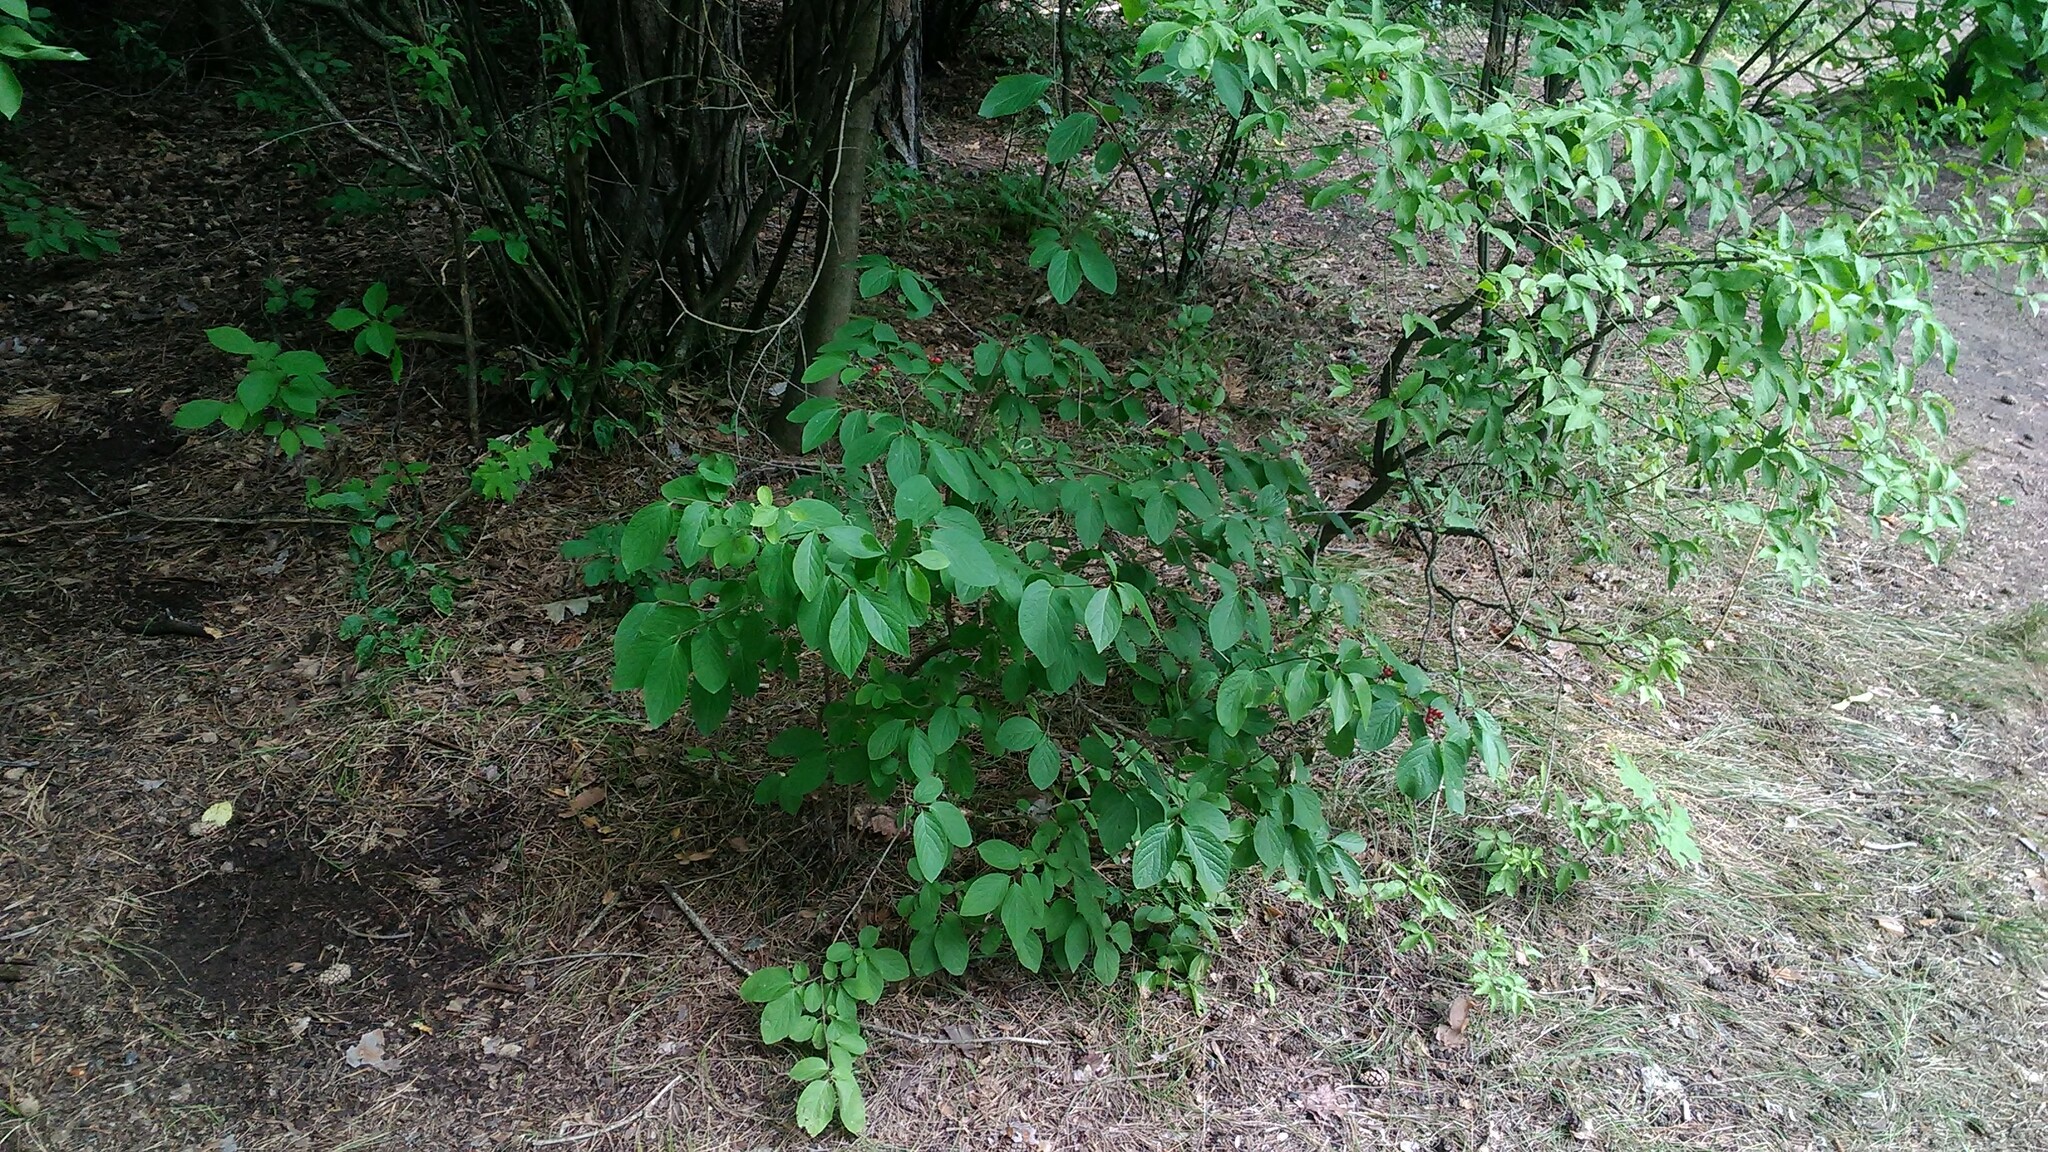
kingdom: Plantae
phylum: Tracheophyta
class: Magnoliopsida
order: Dipsacales
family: Caprifoliaceae
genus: Lonicera
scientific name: Lonicera xylosteum
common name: Fly honeysuckle
